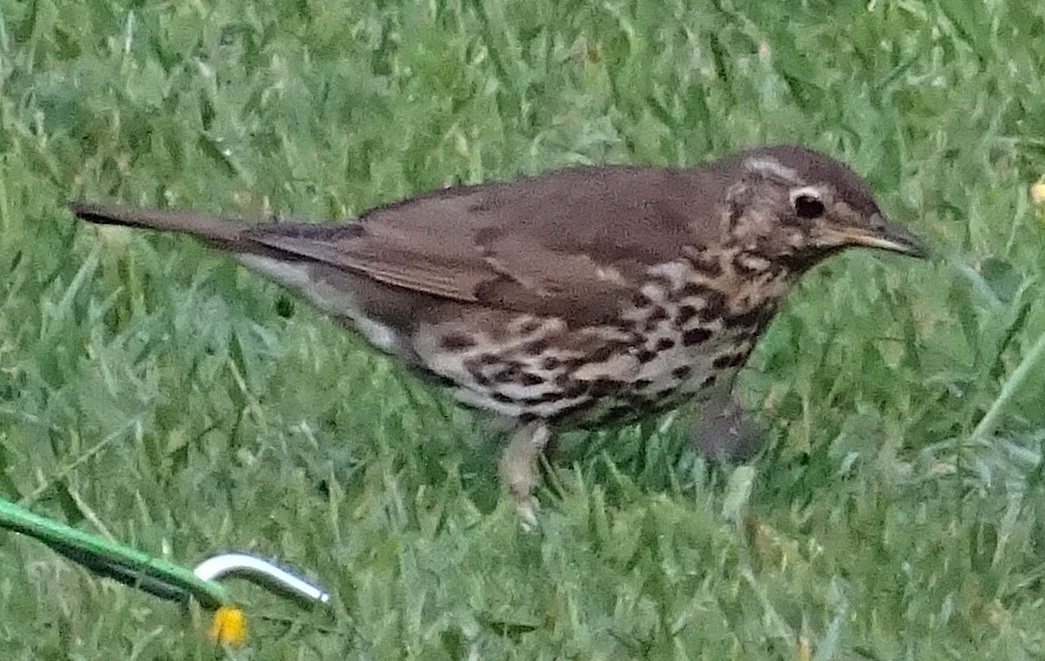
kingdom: Animalia
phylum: Chordata
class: Aves
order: Passeriformes
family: Turdidae
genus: Turdus
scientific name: Turdus philomelos
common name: Song thrush
